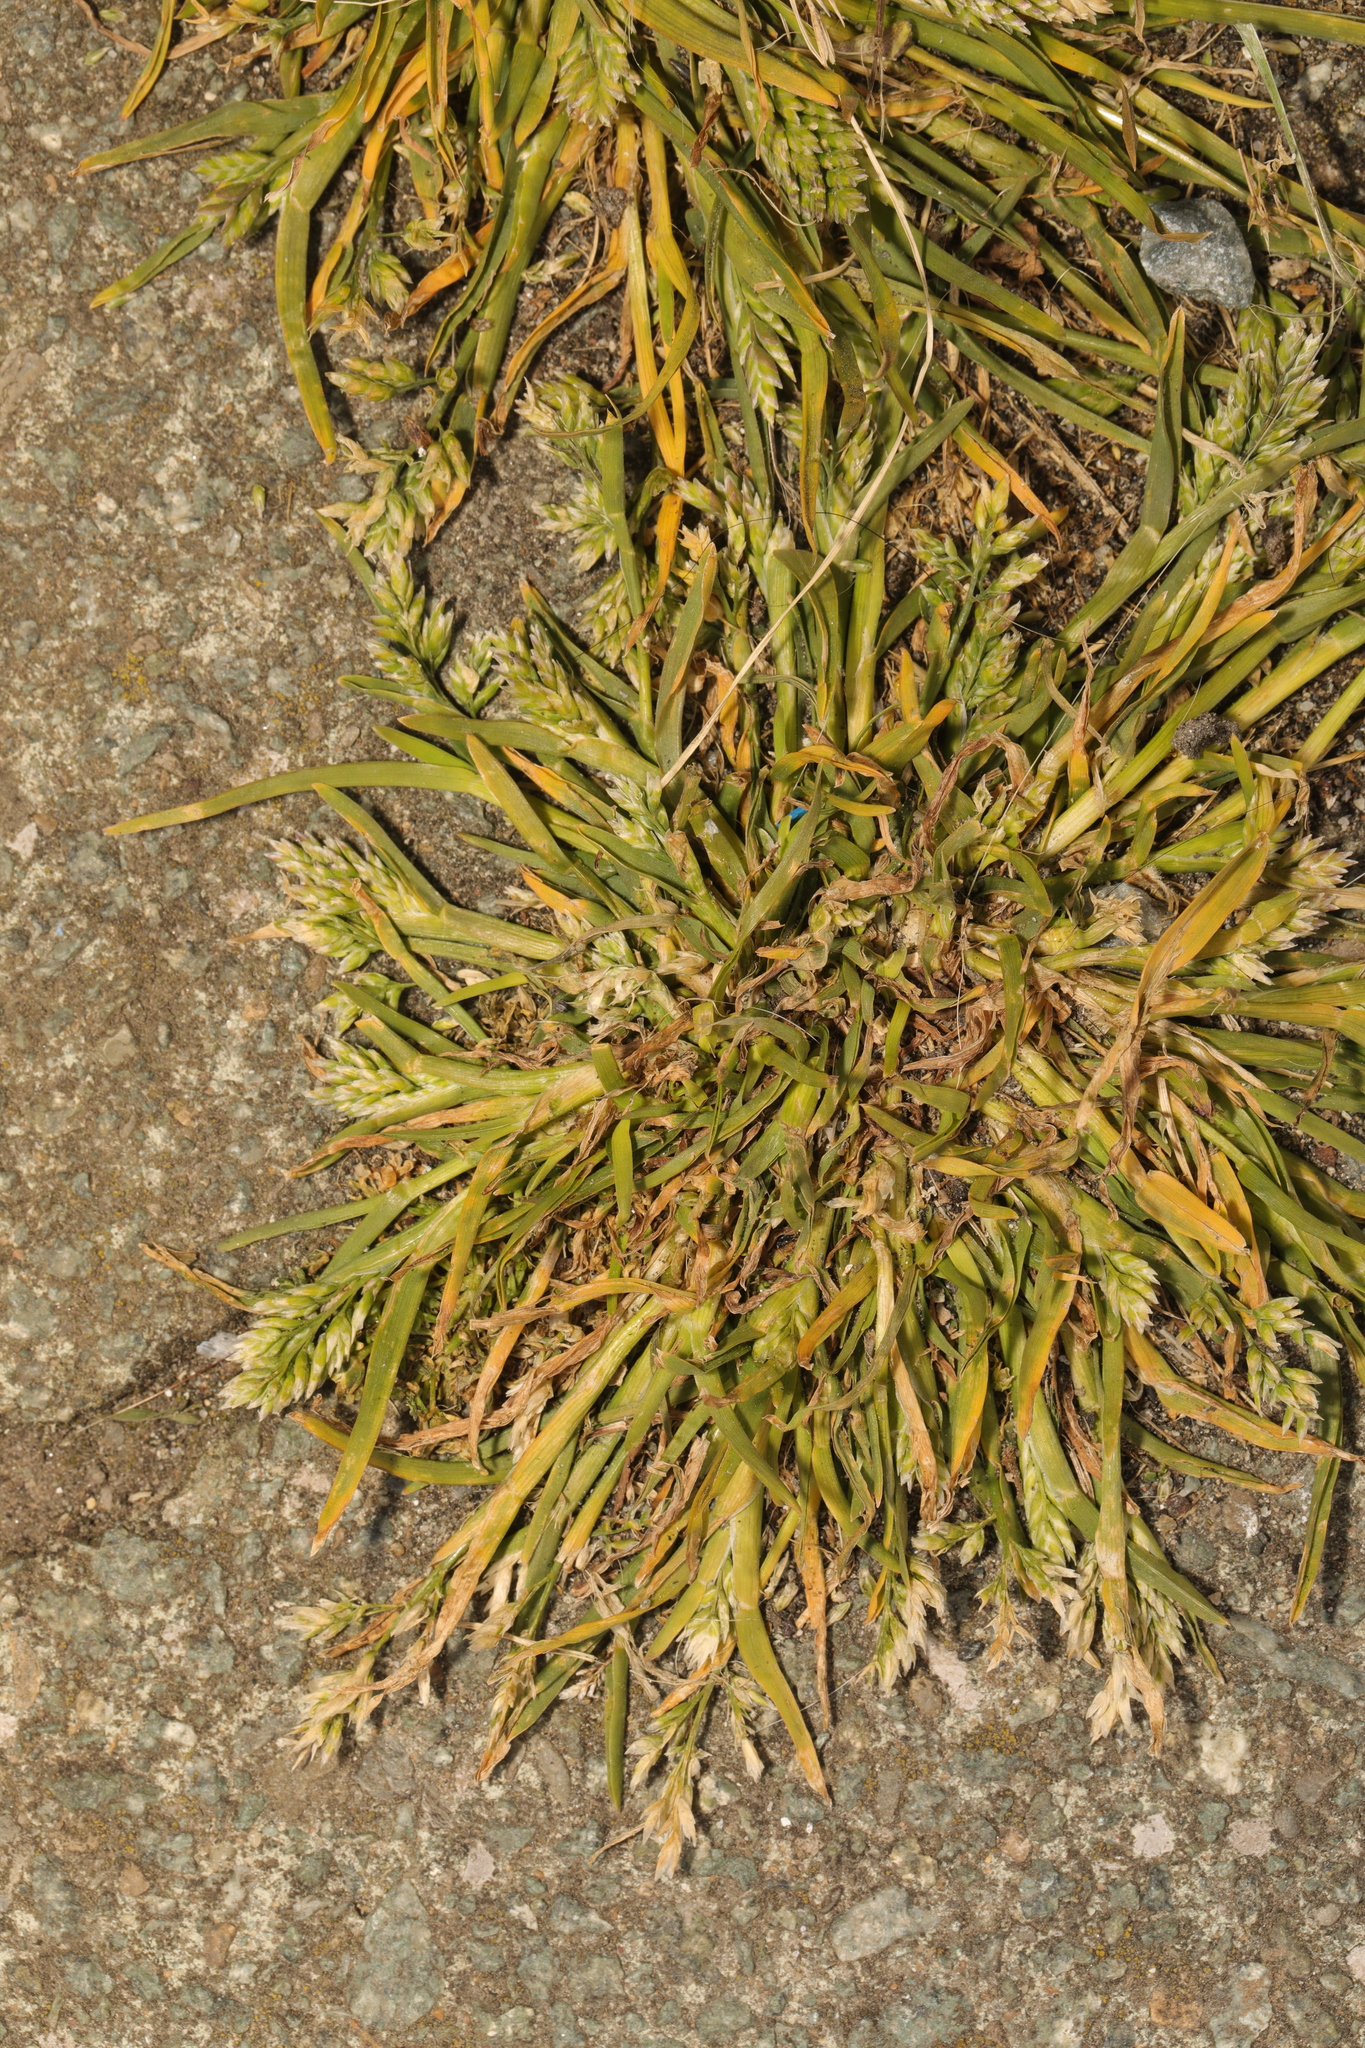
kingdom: Plantae
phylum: Tracheophyta
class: Liliopsida
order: Poales
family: Poaceae
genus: Poa
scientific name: Poa annua
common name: Annual bluegrass
